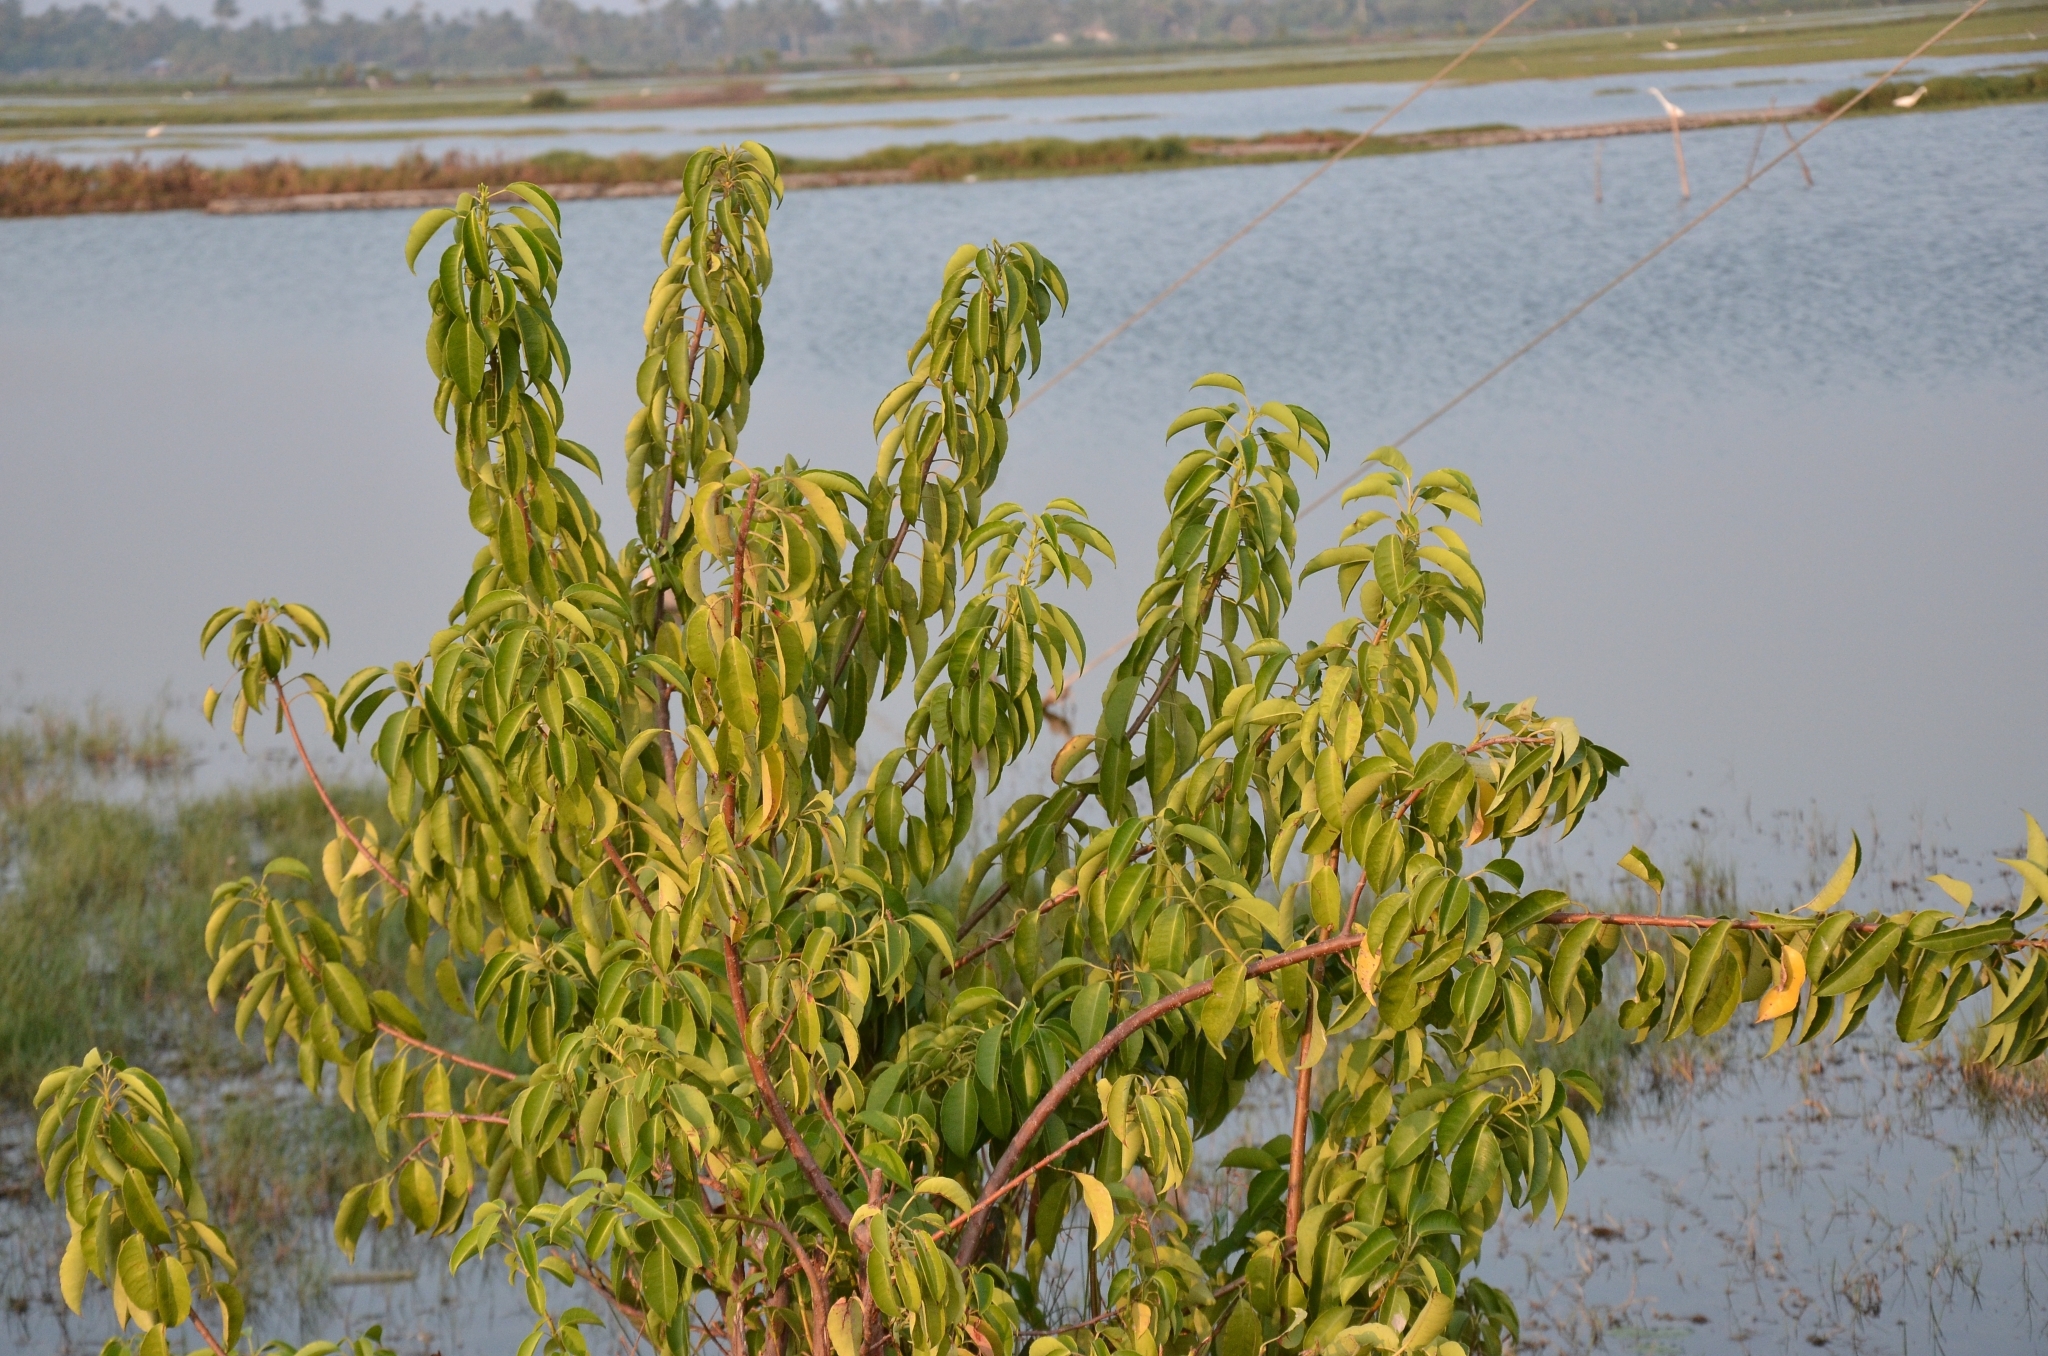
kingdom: Plantae
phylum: Tracheophyta
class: Magnoliopsida
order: Malpighiales
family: Euphorbiaceae
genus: Excoecaria
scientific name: Excoecaria agallocha
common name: River poisontree
